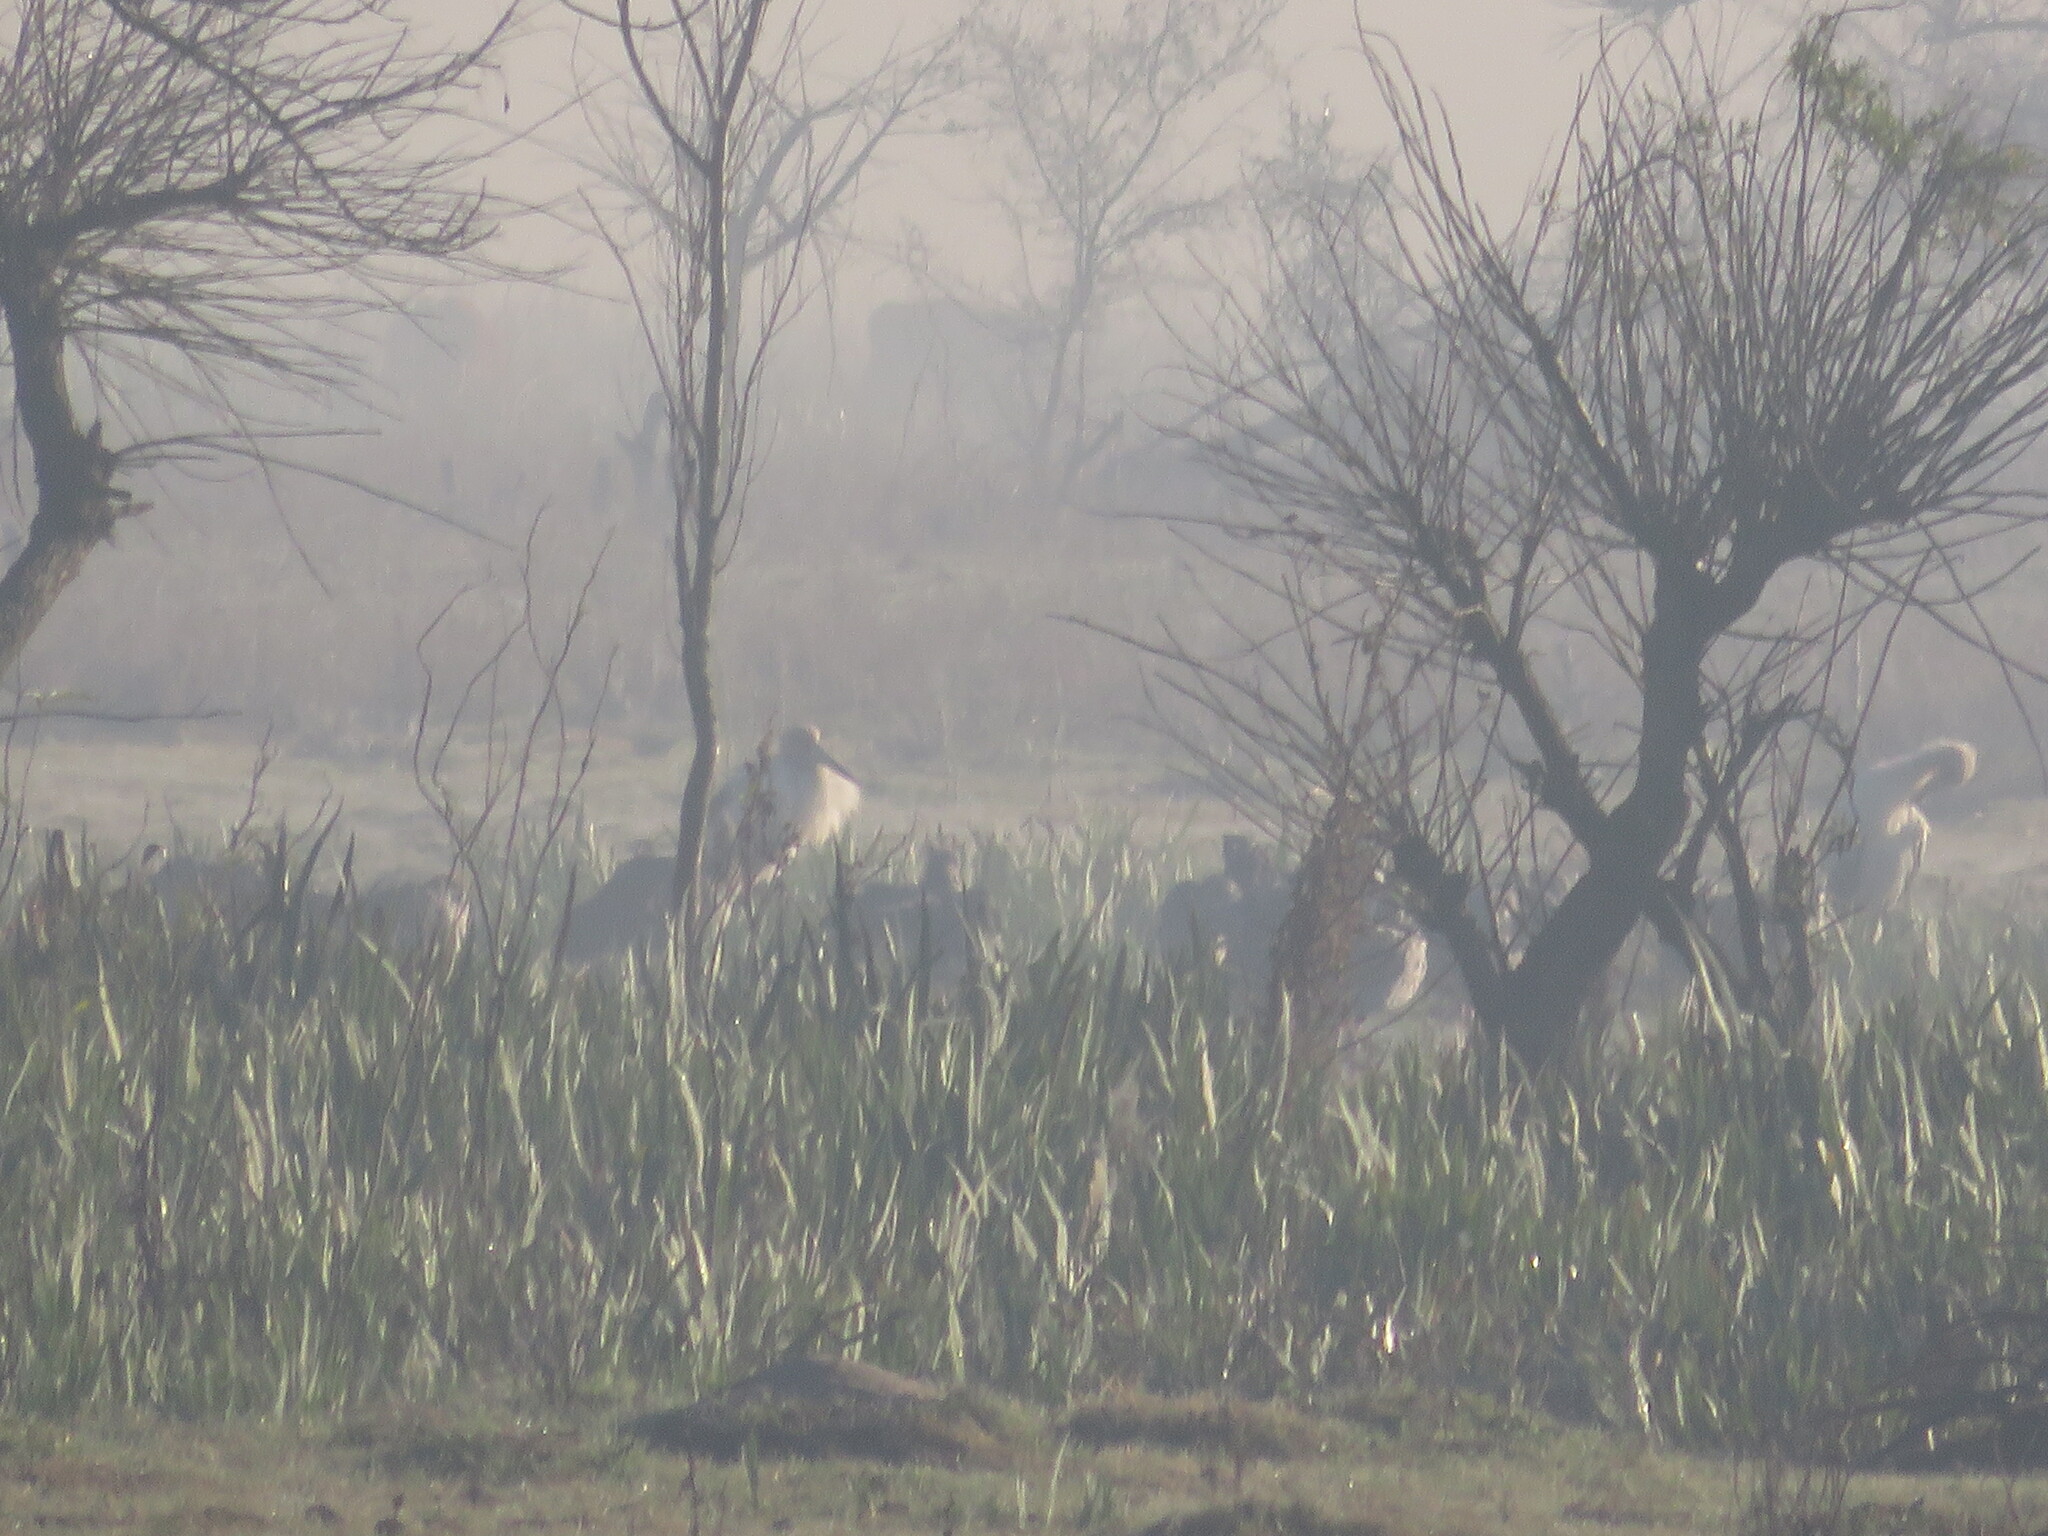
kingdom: Animalia
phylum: Chordata
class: Aves
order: Ciconiiformes
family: Ciconiidae
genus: Ciconia
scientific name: Ciconia maguari
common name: Maguari stork
